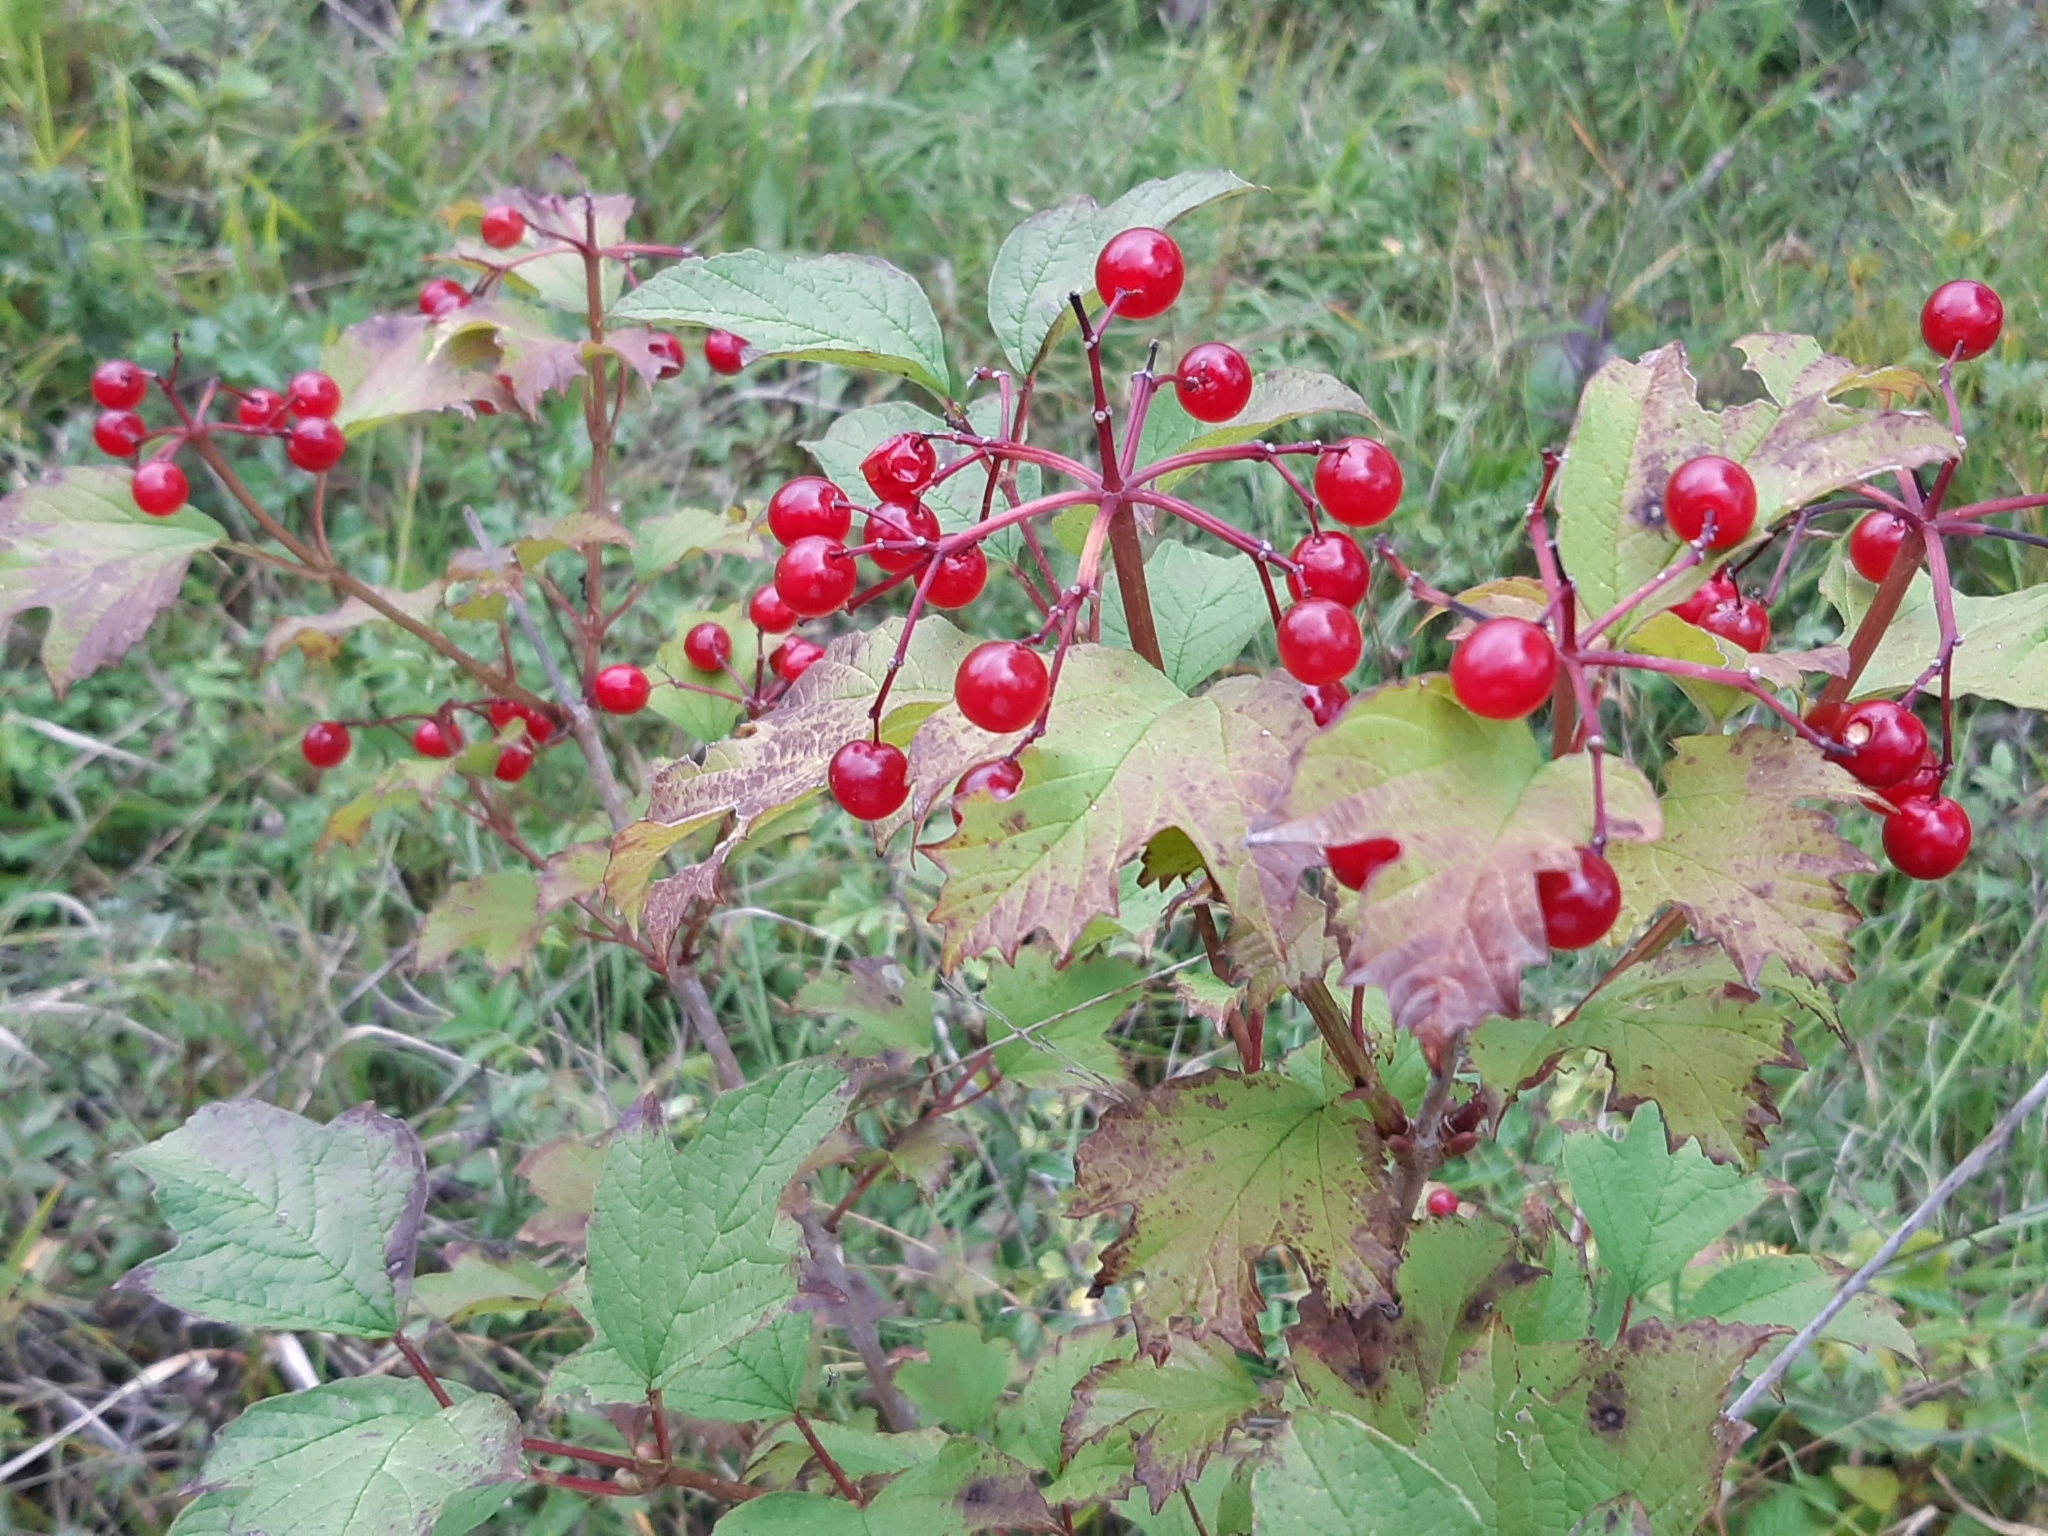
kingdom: Plantae
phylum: Tracheophyta
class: Magnoliopsida
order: Dipsacales
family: Viburnaceae
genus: Viburnum
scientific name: Viburnum opulus
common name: Guelder-rose
